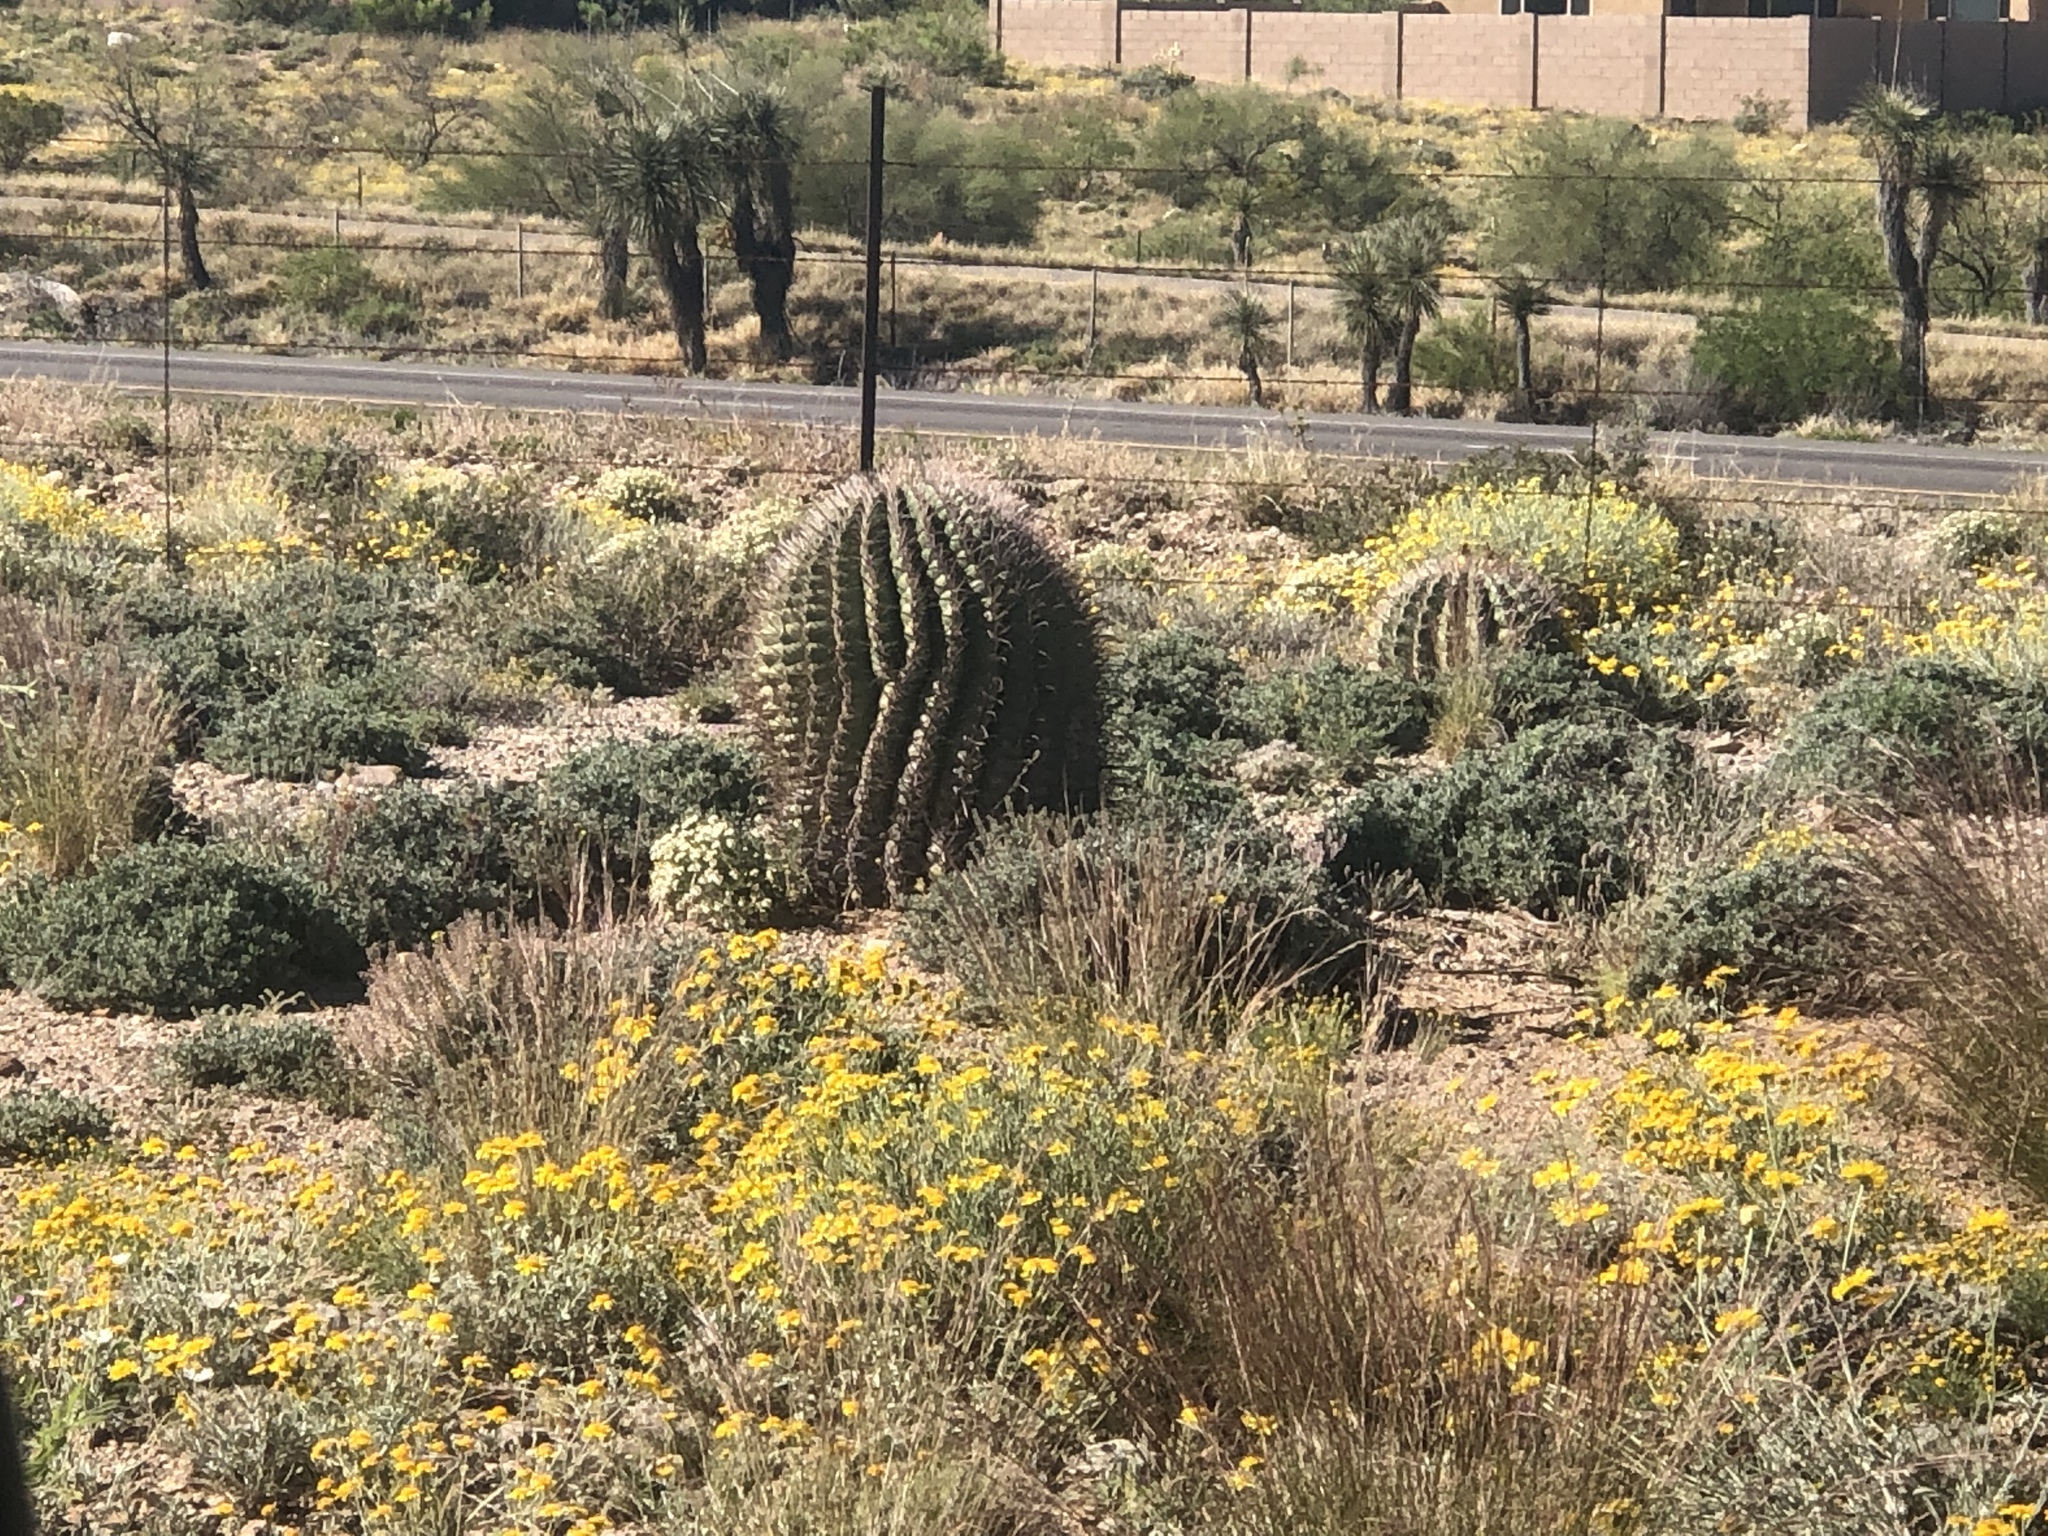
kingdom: Plantae
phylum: Tracheophyta
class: Magnoliopsida
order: Caryophyllales
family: Cactaceae
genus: Ferocactus
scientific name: Ferocactus wislizeni
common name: Candy barrel cactus
